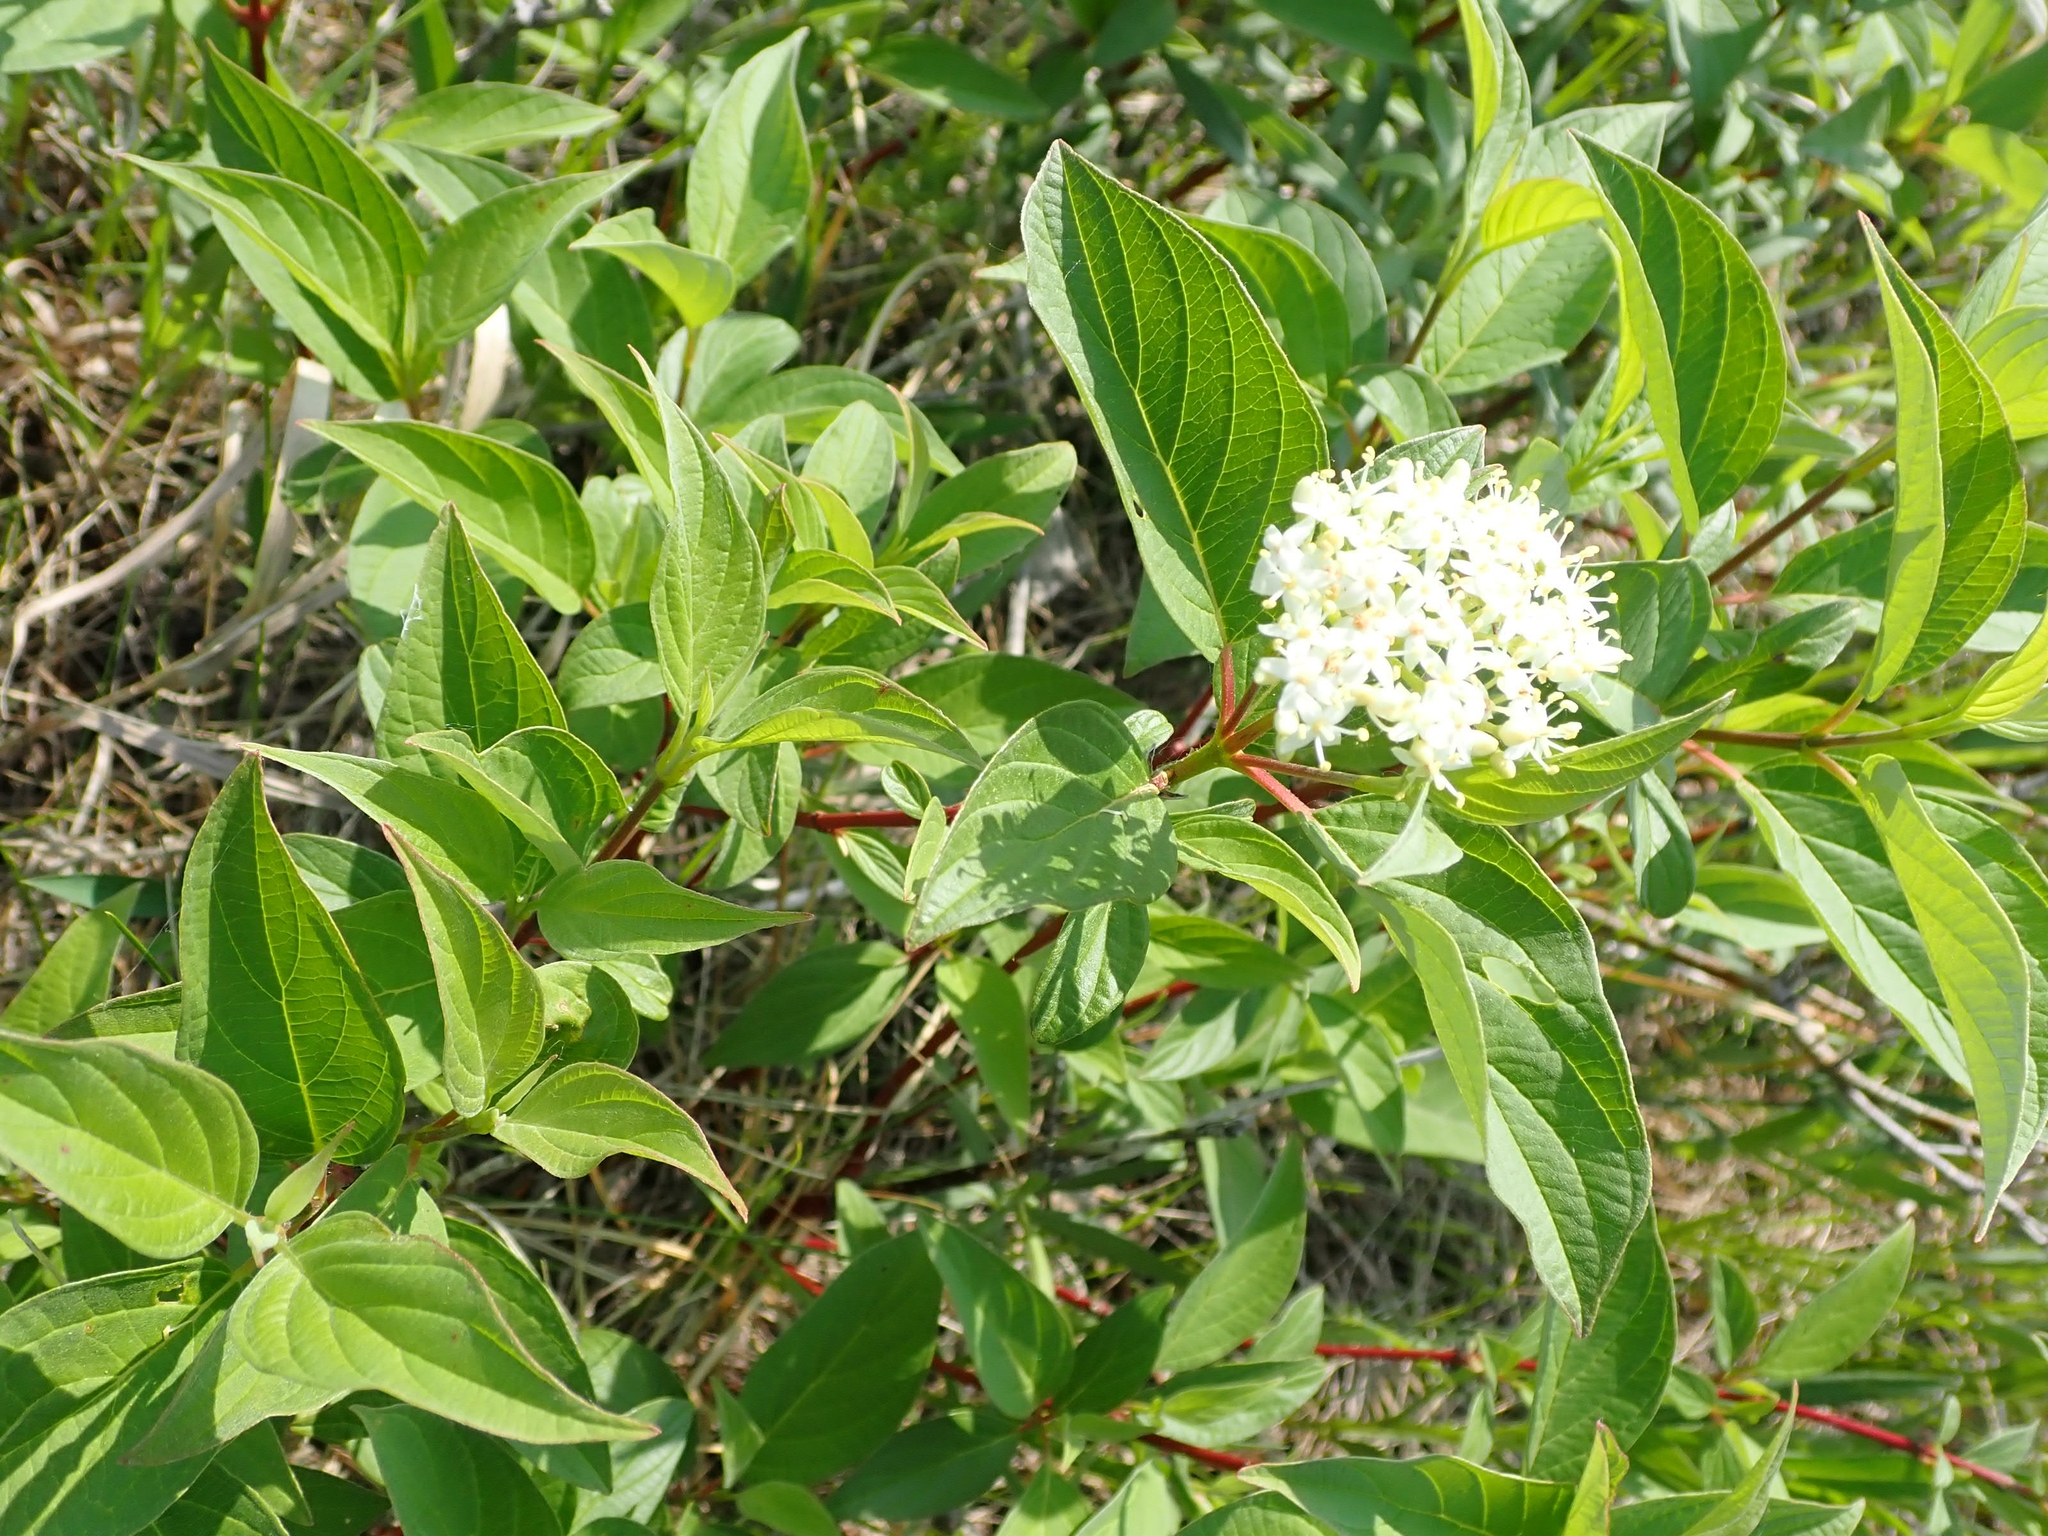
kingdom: Plantae
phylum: Tracheophyta
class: Magnoliopsida
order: Cornales
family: Cornaceae
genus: Cornus
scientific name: Cornus sericea
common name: Red-osier dogwood
